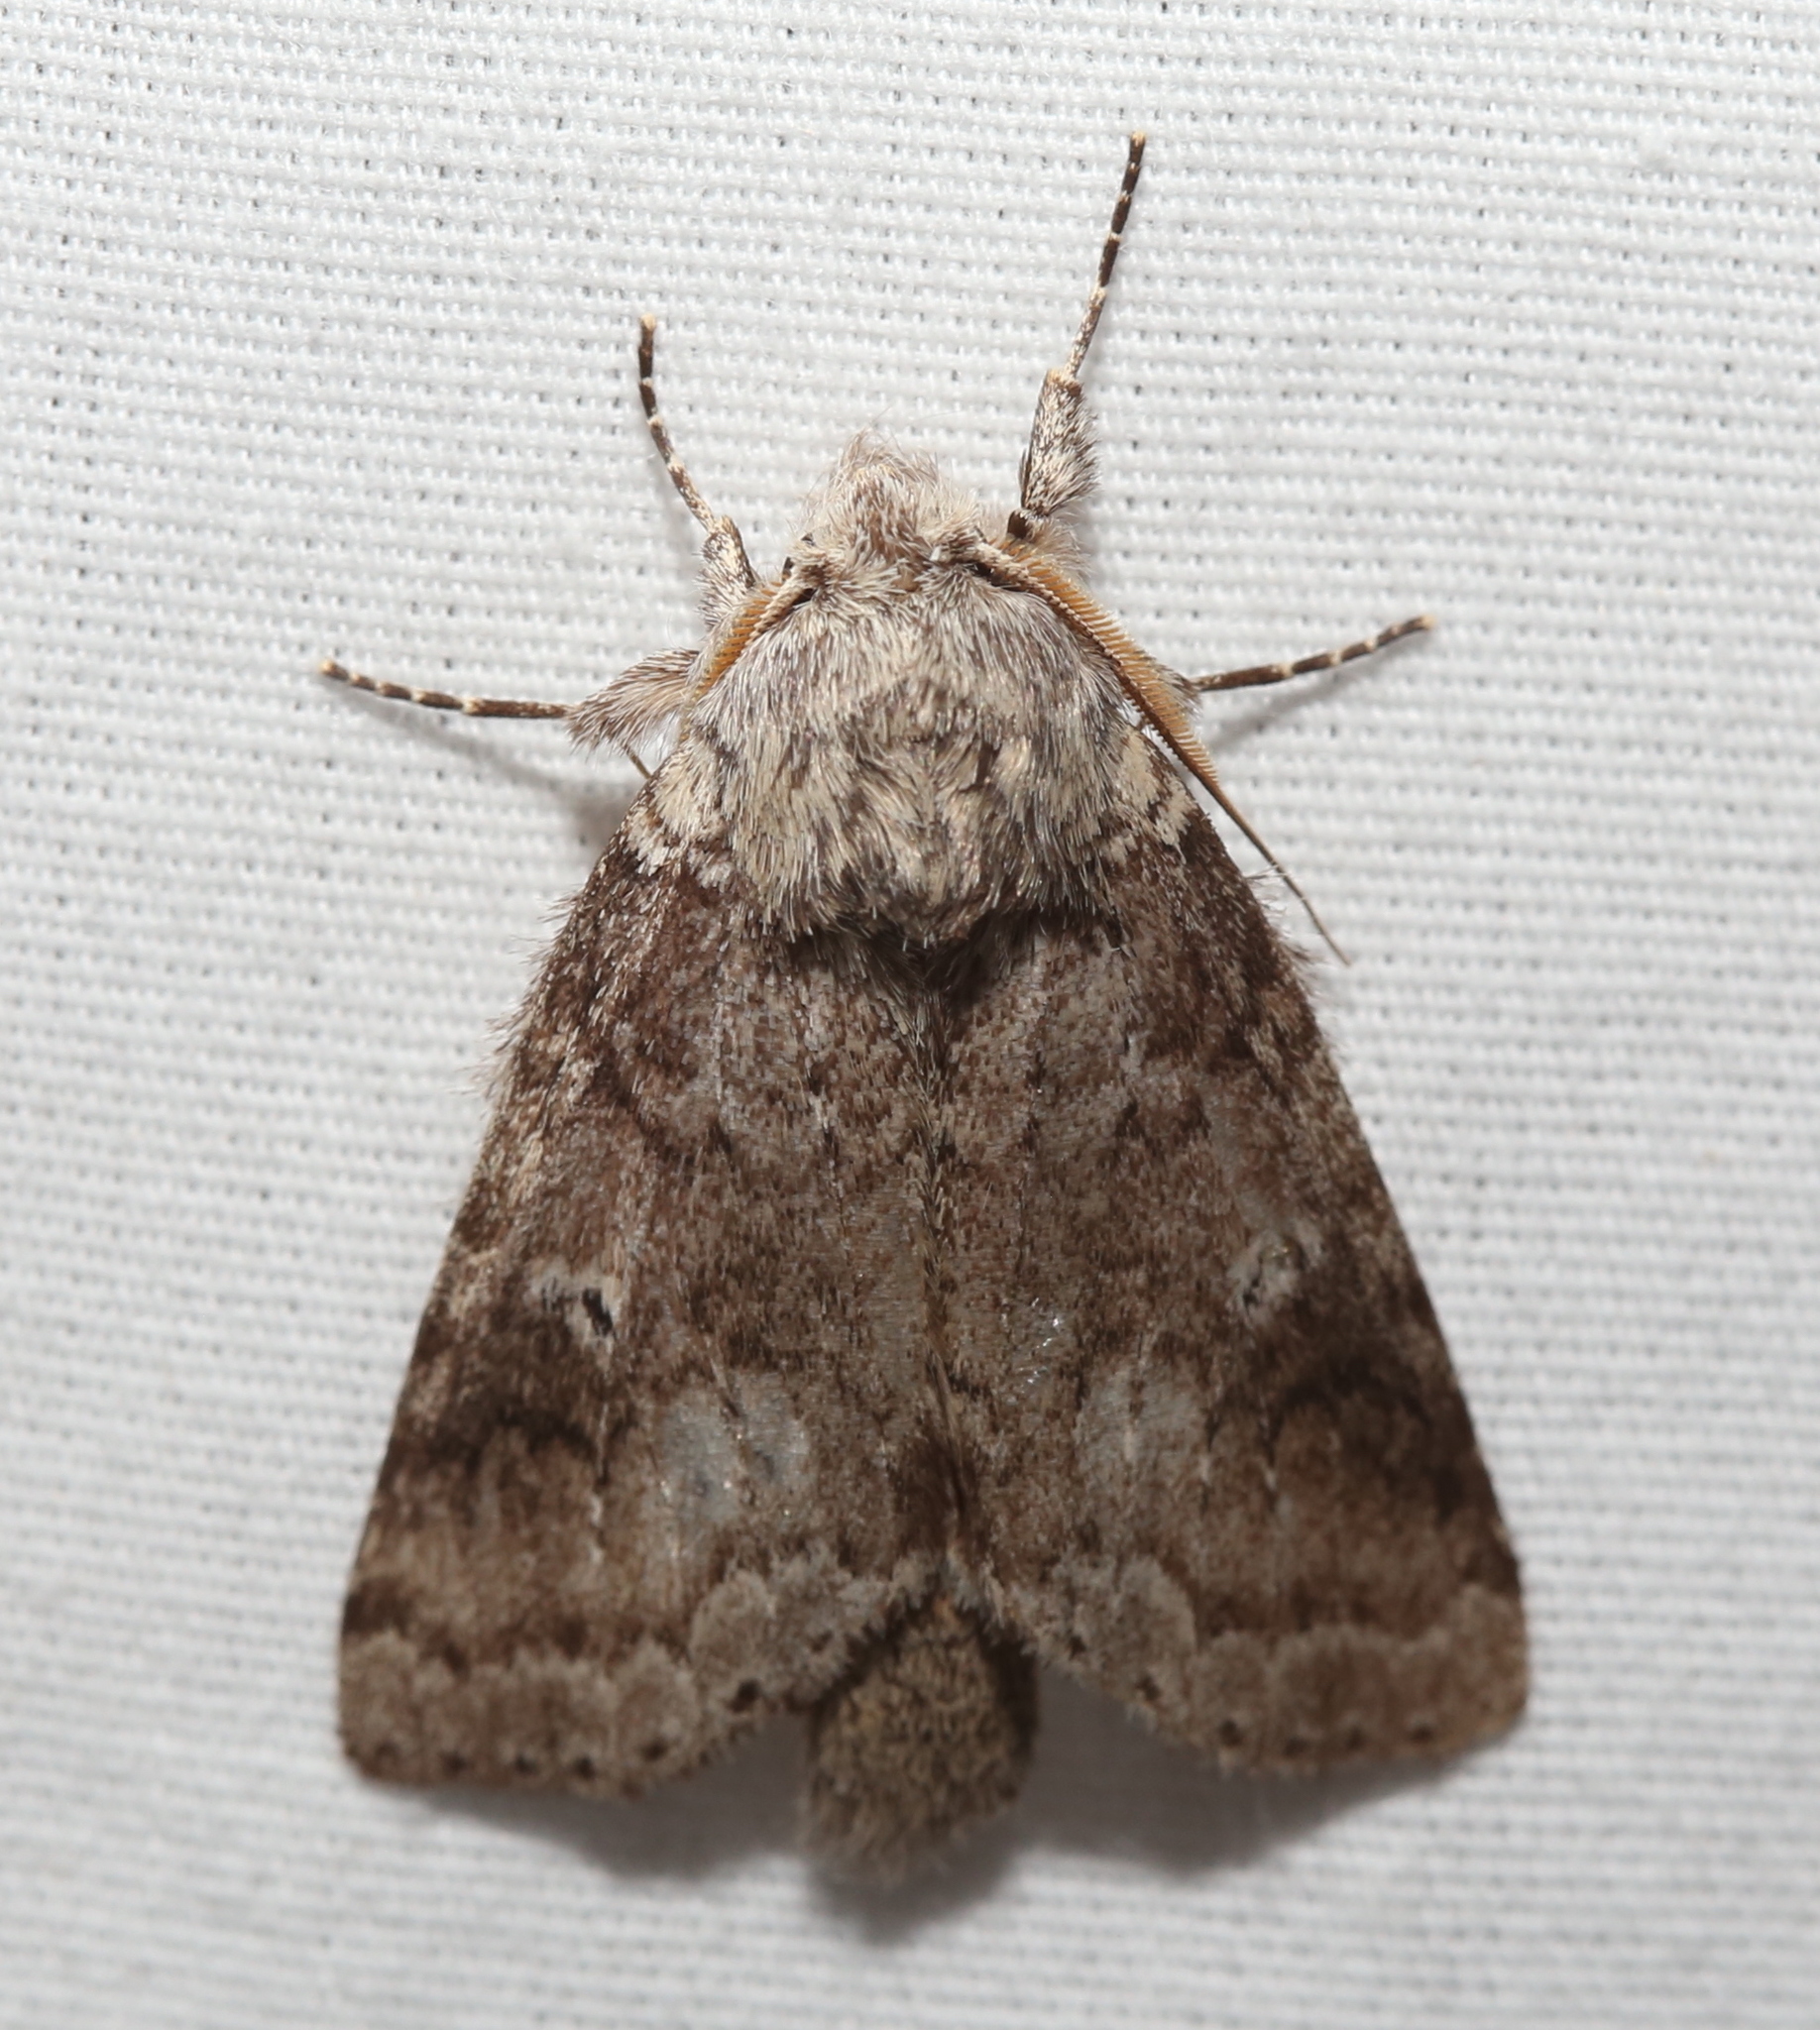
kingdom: Animalia
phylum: Arthropoda
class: Insecta
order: Lepidoptera
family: Notodontidae
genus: Lochmaeus
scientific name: Lochmaeus manteo
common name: Variable oakleaf caterpillar moth
